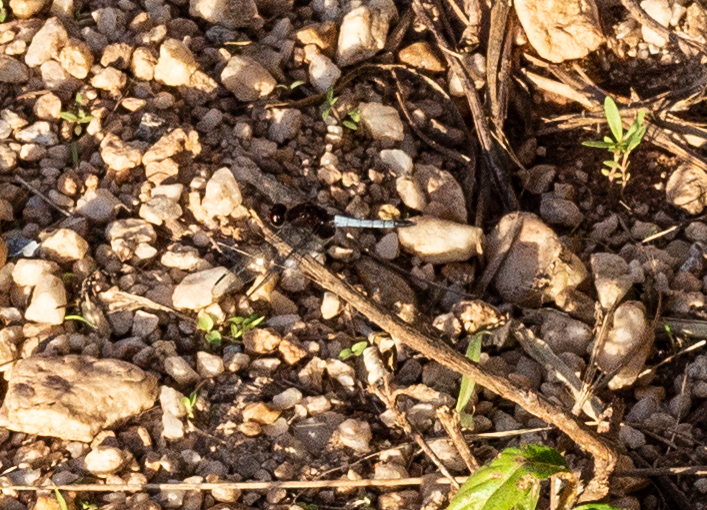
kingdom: Animalia
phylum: Arthropoda
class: Insecta
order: Odonata
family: Libellulidae
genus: Erythrodiplax
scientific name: Erythrodiplax fusca
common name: Red-faced dragonlet
